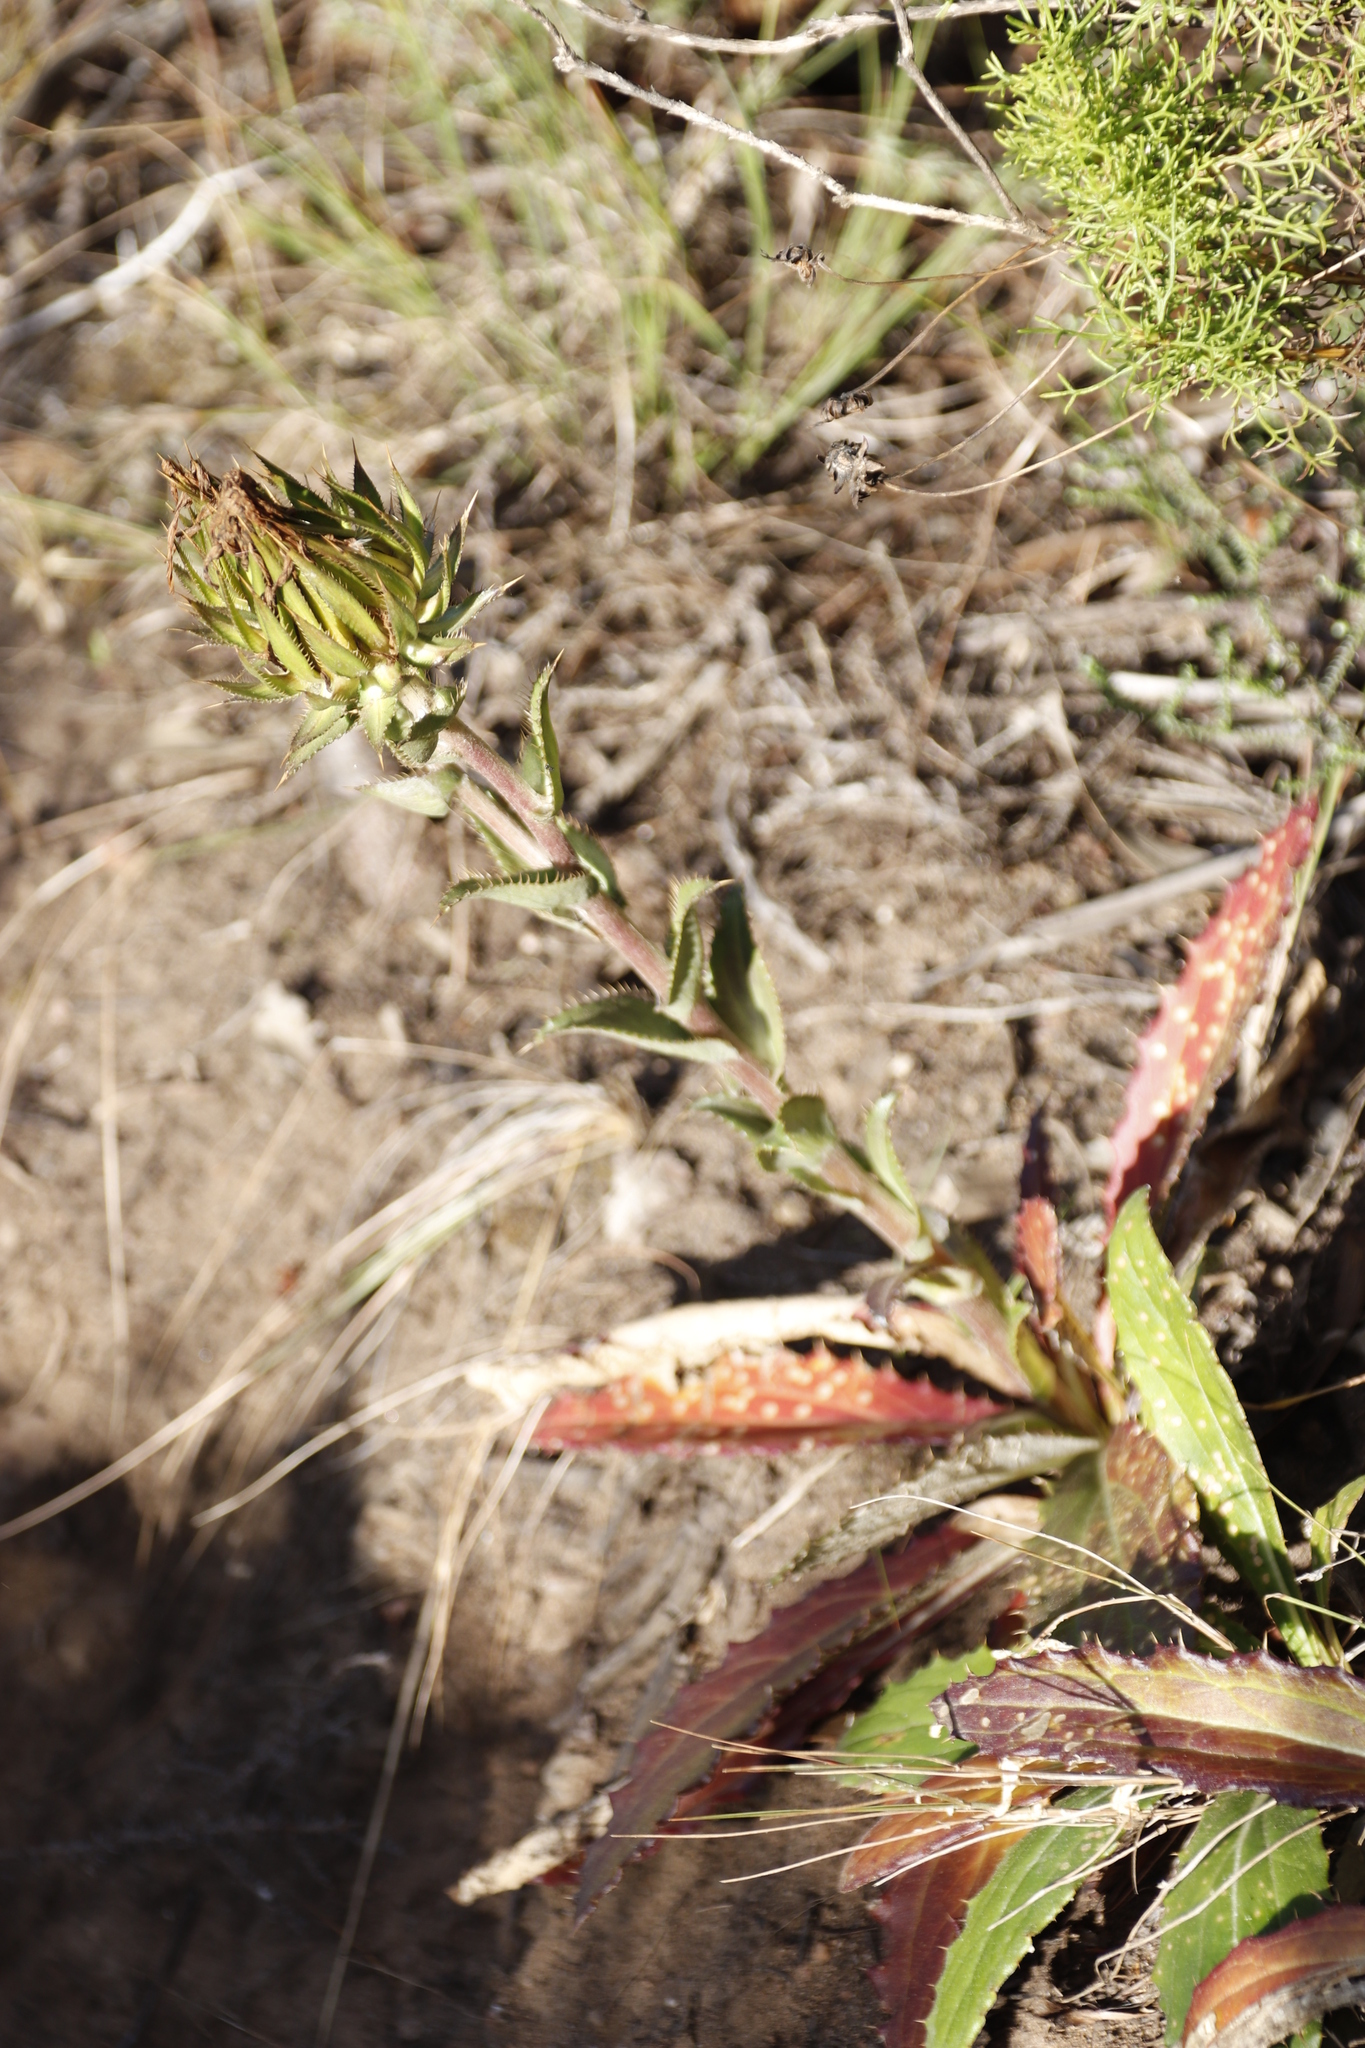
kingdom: Plantae
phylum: Tracheophyta
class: Magnoliopsida
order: Asterales
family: Asteraceae
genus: Berkheya
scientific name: Berkheya armata
